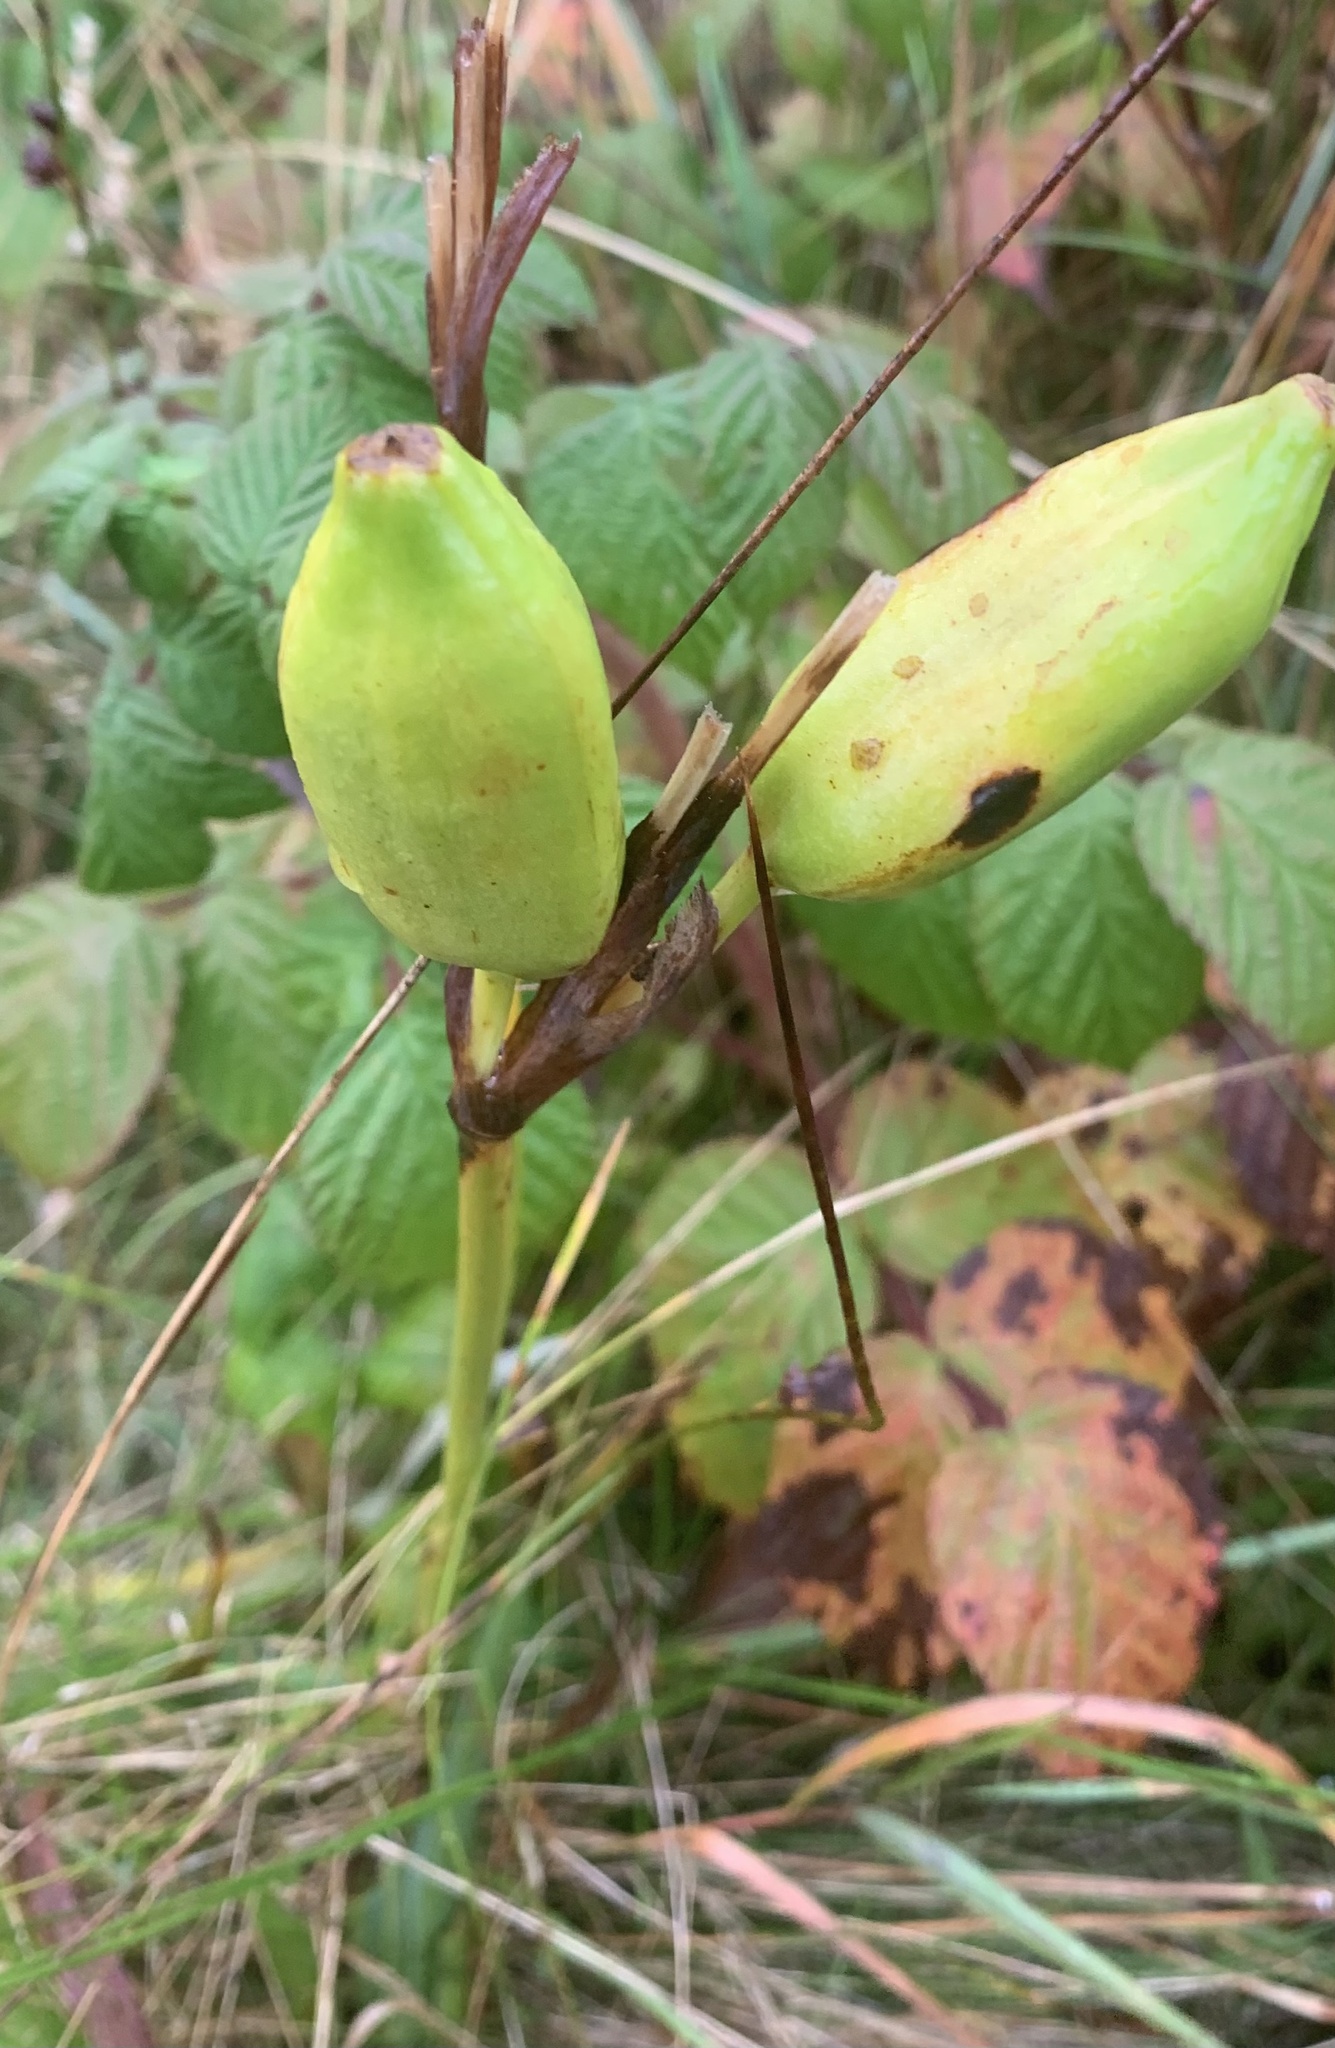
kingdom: Plantae
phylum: Tracheophyta
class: Liliopsida
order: Asparagales
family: Iridaceae
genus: Iris
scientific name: Iris versicolor
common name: Purple iris
